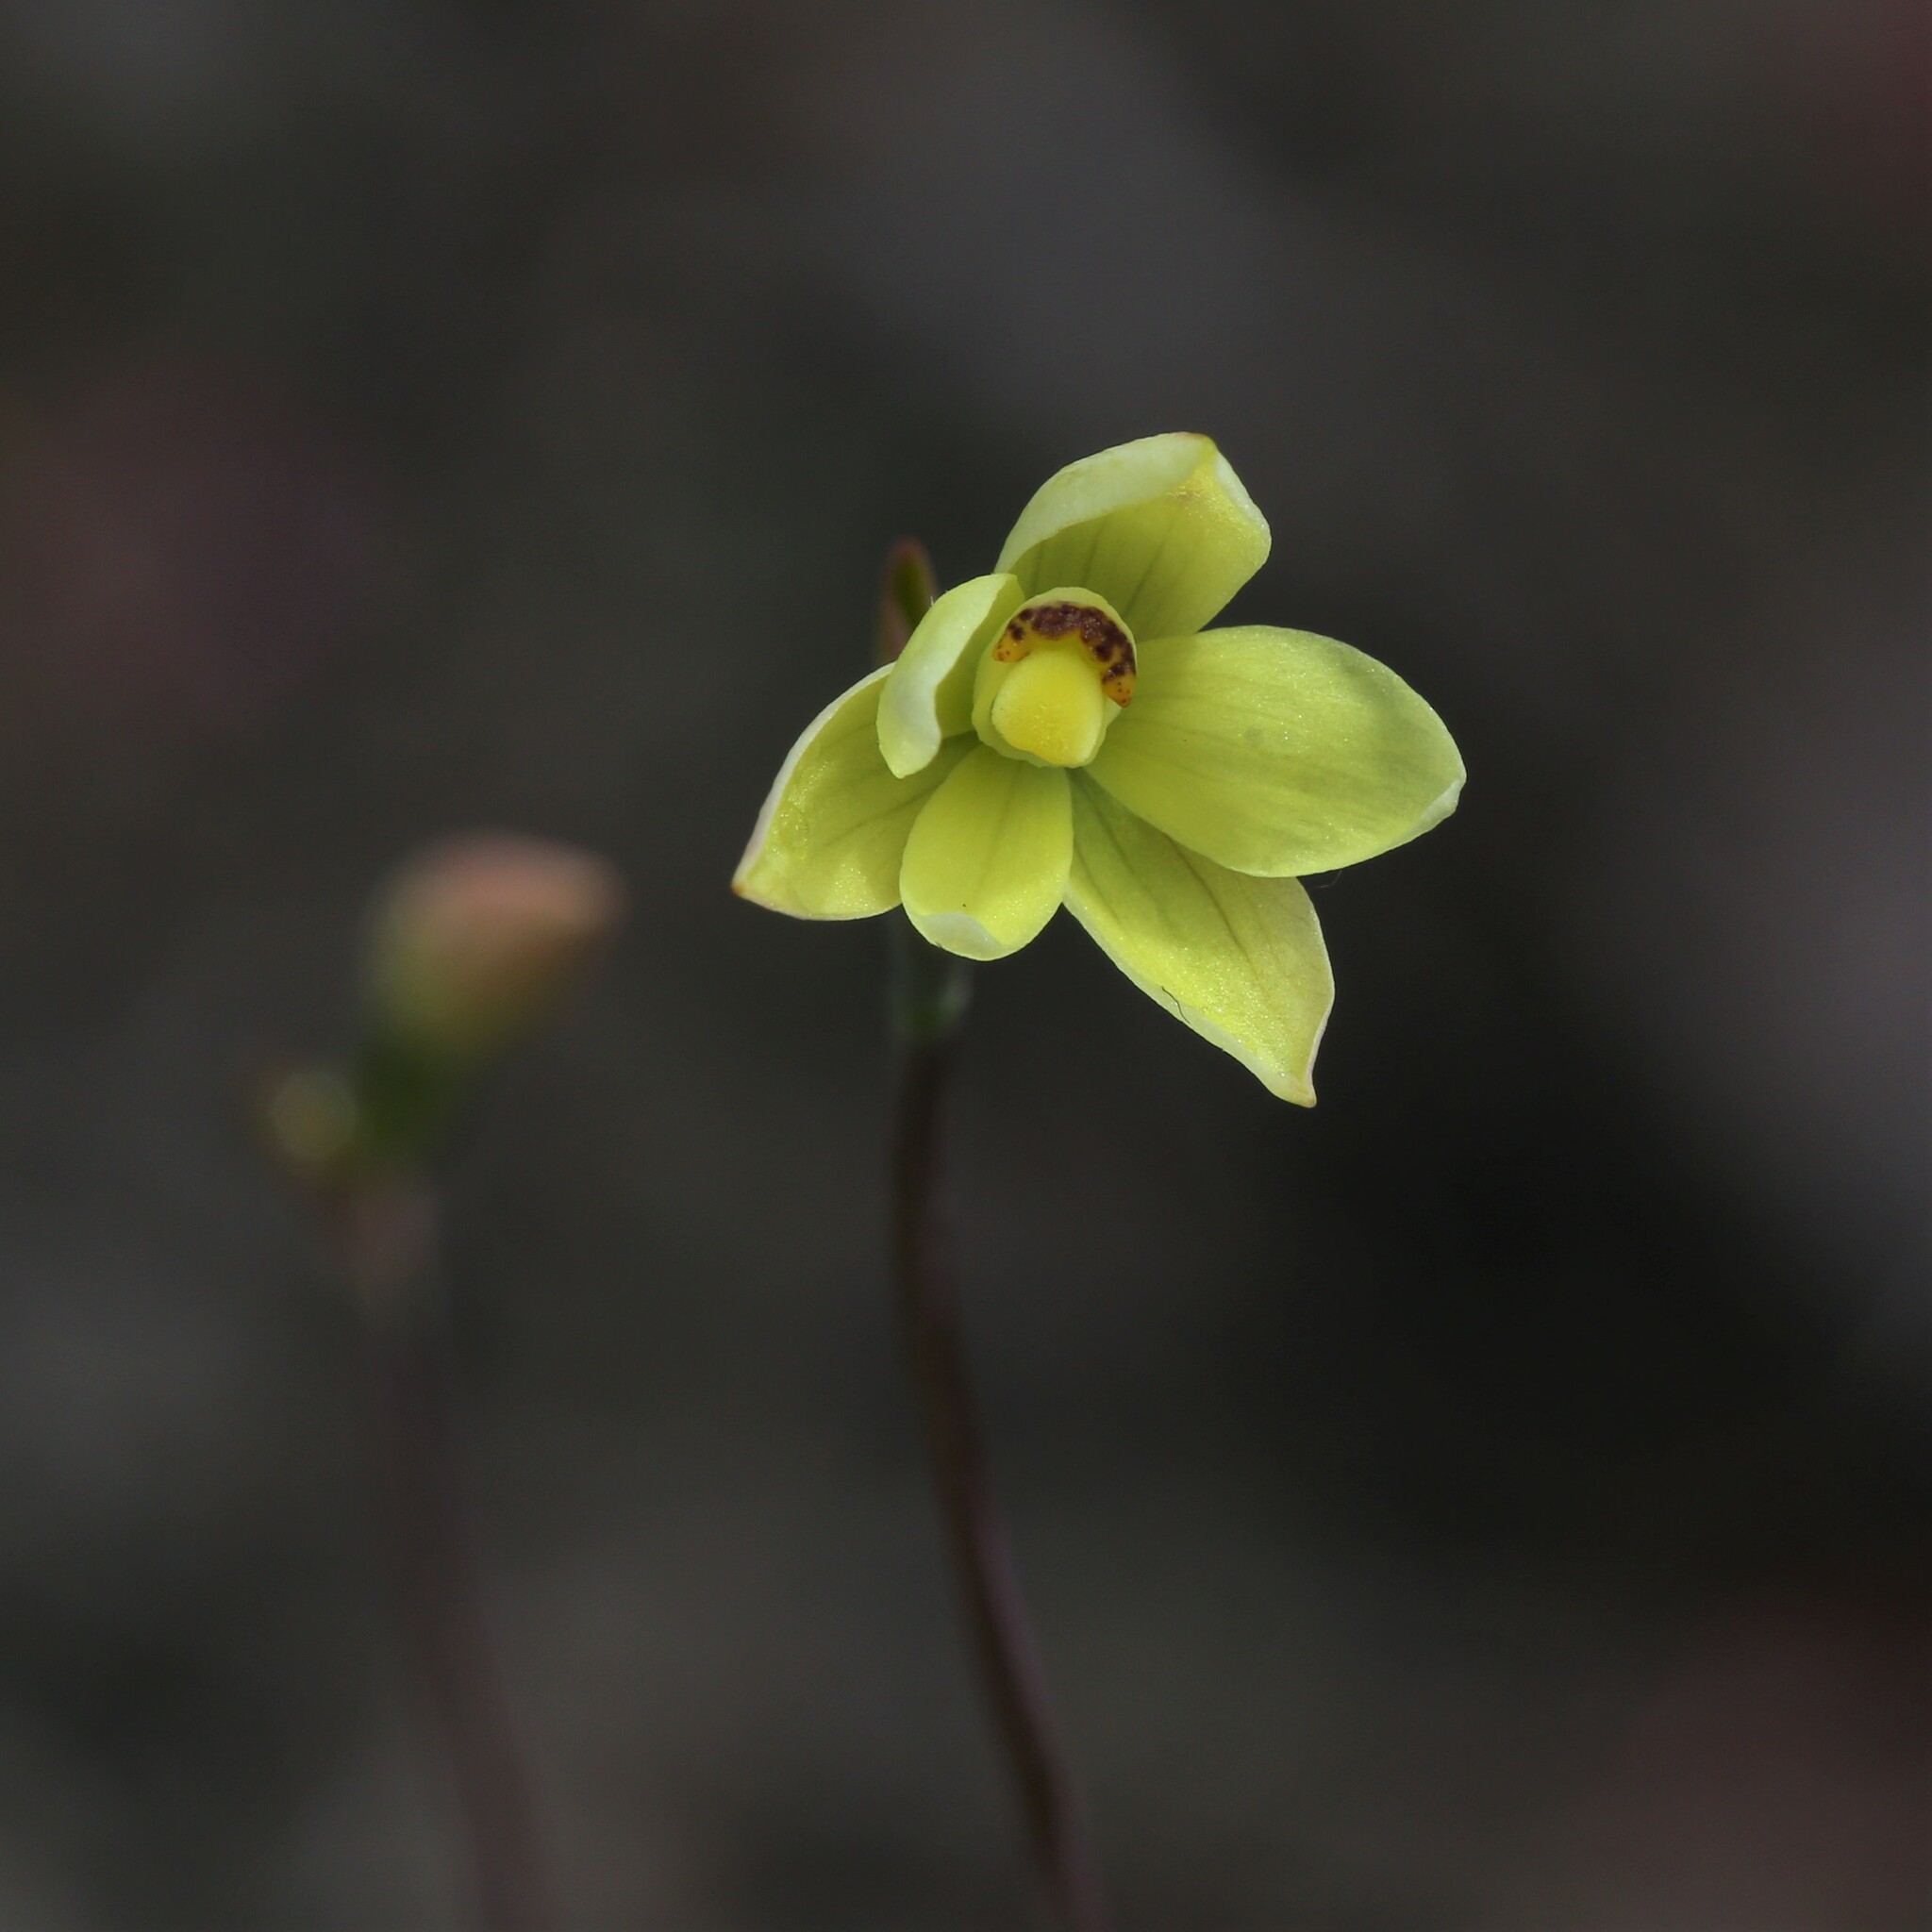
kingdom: Plantae
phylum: Tracheophyta
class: Liliopsida
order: Asparagales
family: Orchidaceae
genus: Thelymitra
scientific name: Thelymitra flexuosa
